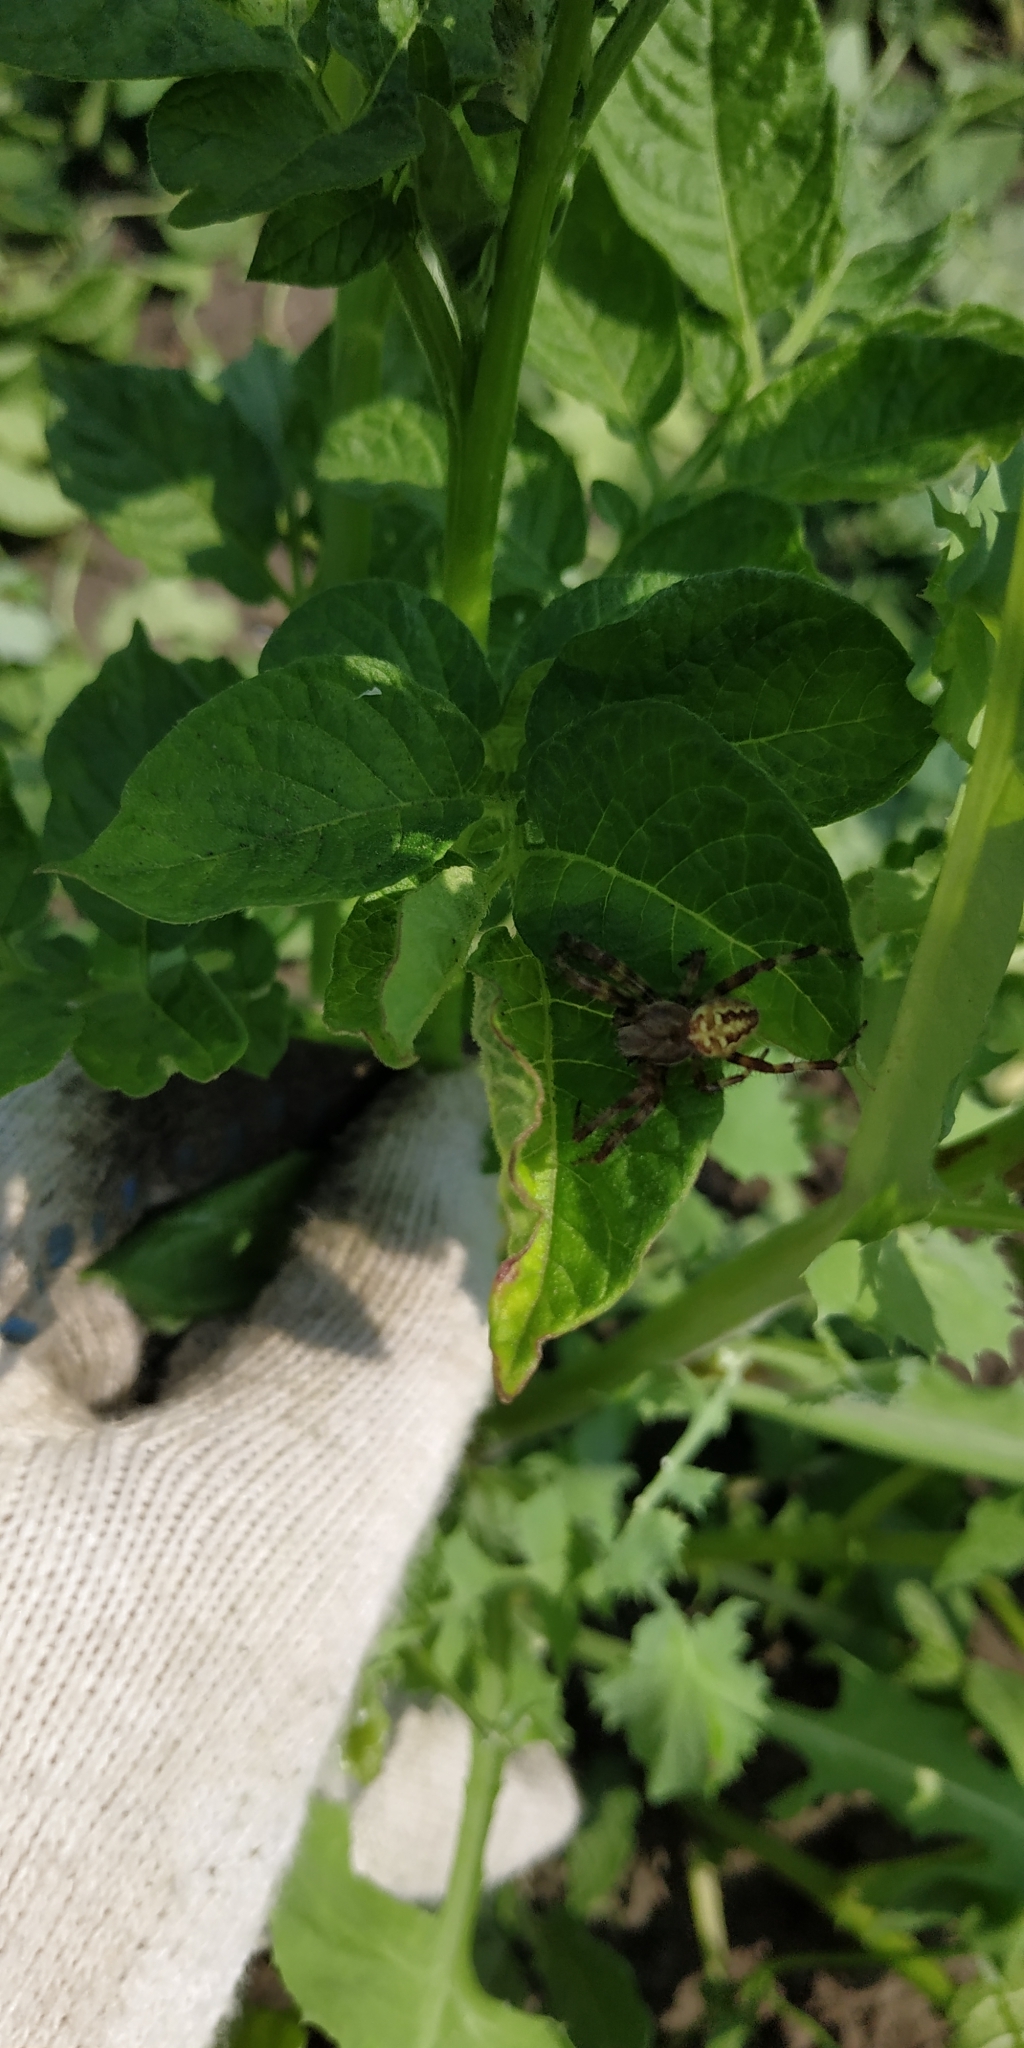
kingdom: Animalia
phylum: Arthropoda
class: Arachnida
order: Araneae
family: Araneidae
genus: Araneus
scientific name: Araneus quadratus
